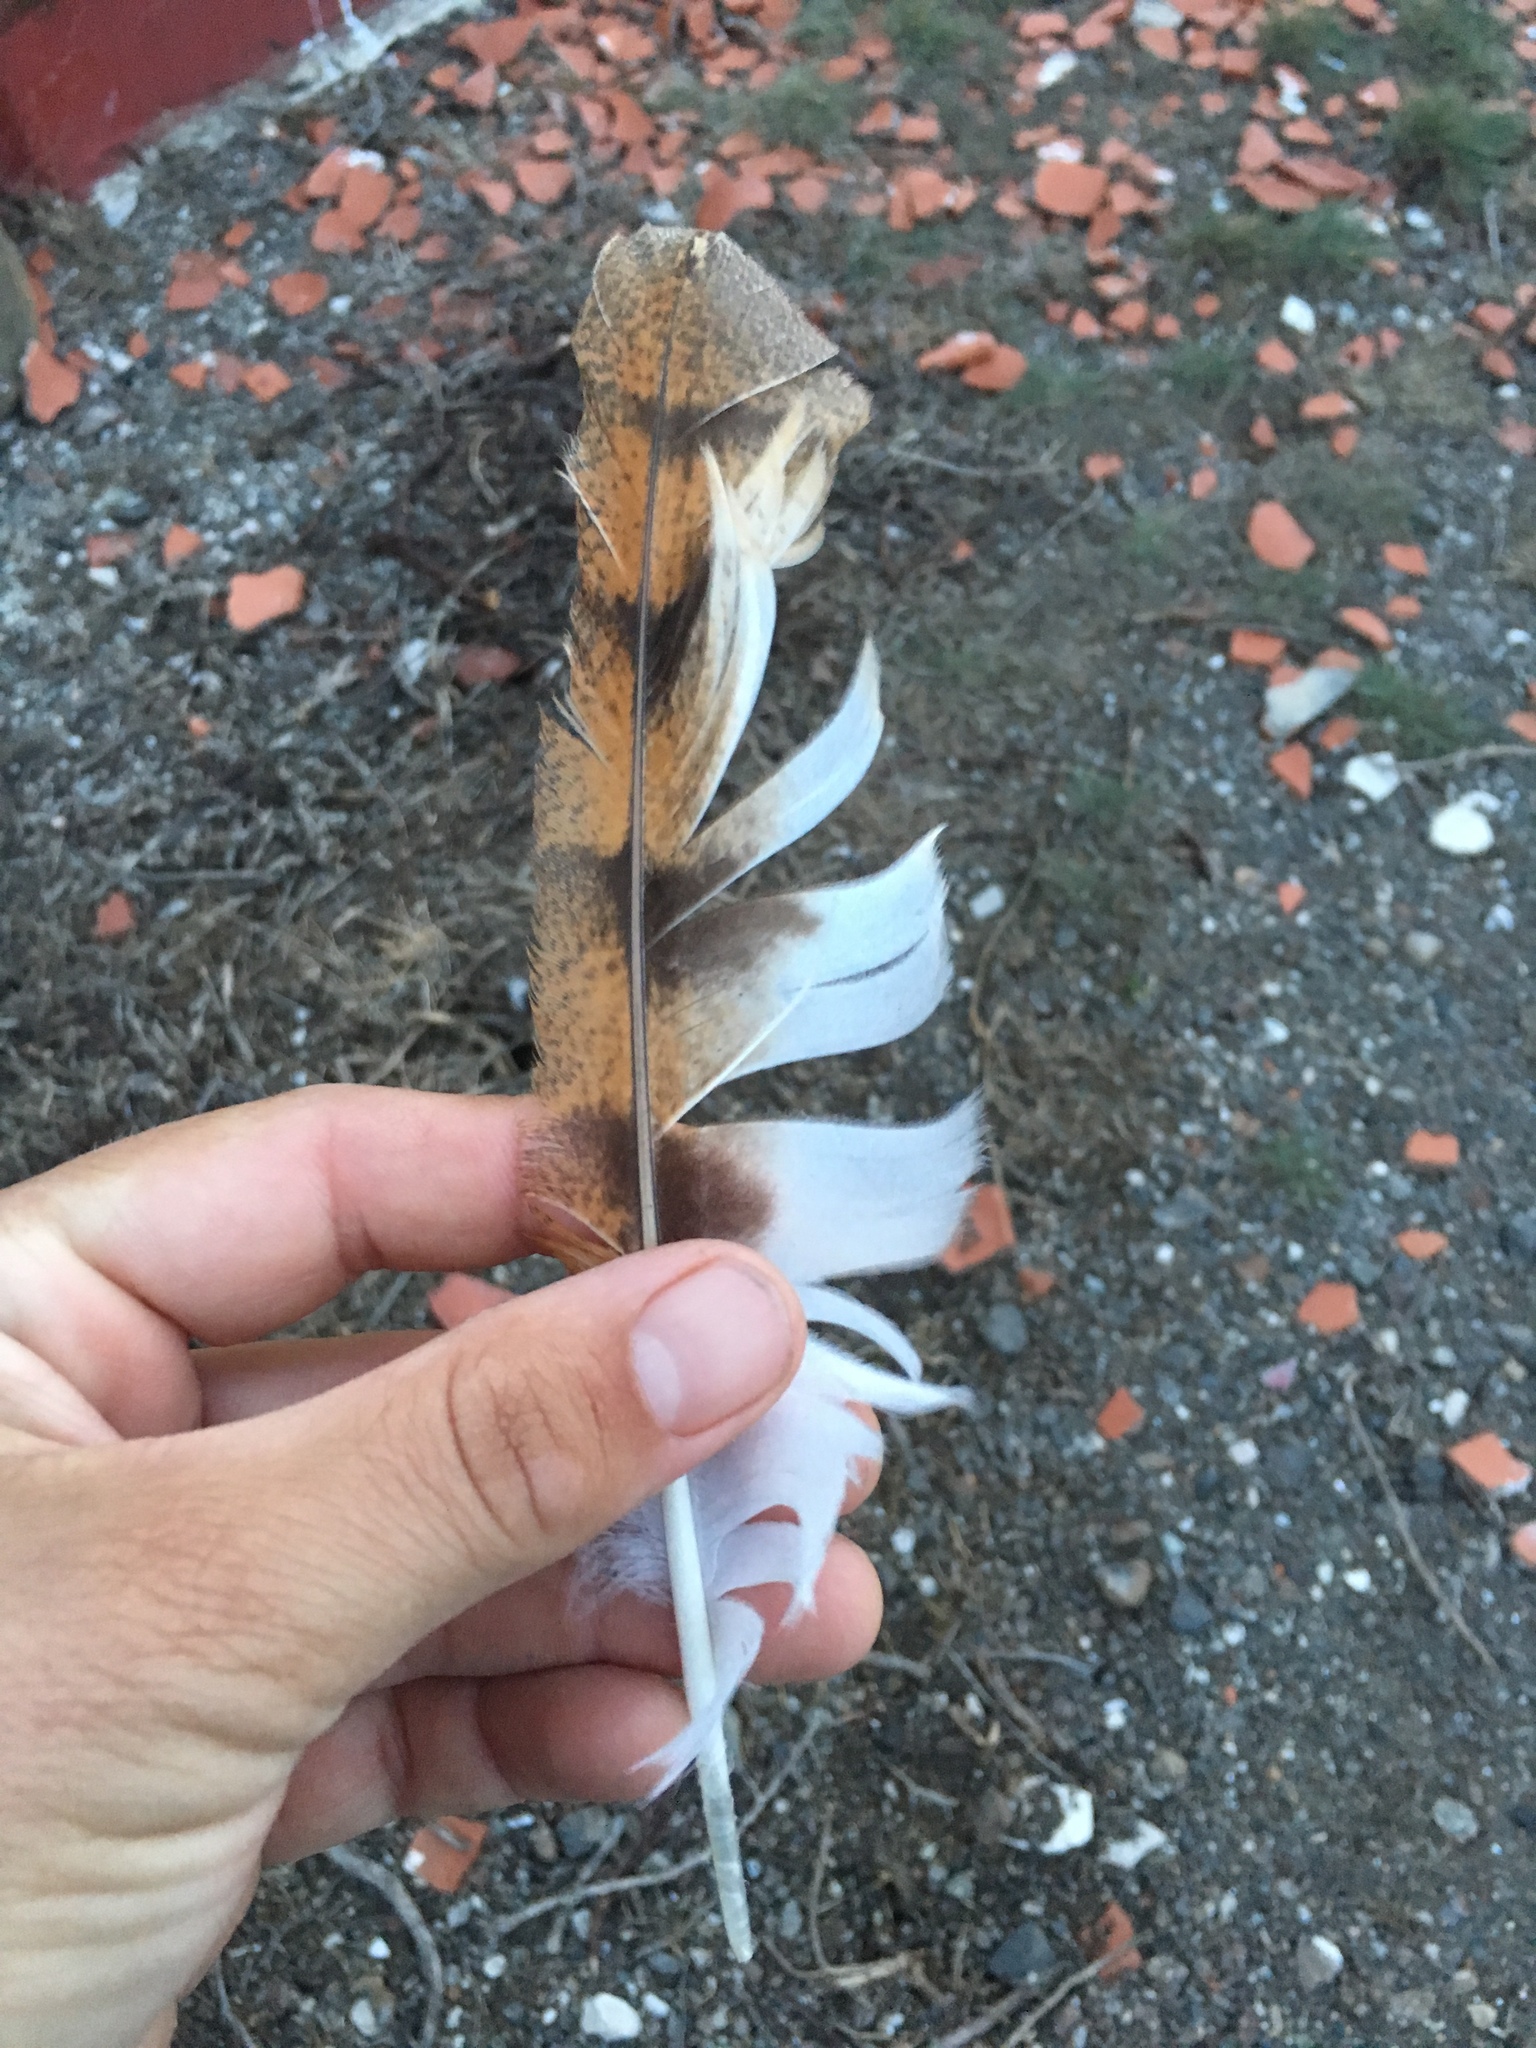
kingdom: Animalia
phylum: Chordata
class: Aves
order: Strigiformes
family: Tytonidae
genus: Tyto
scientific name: Tyto alba
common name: Barn owl
